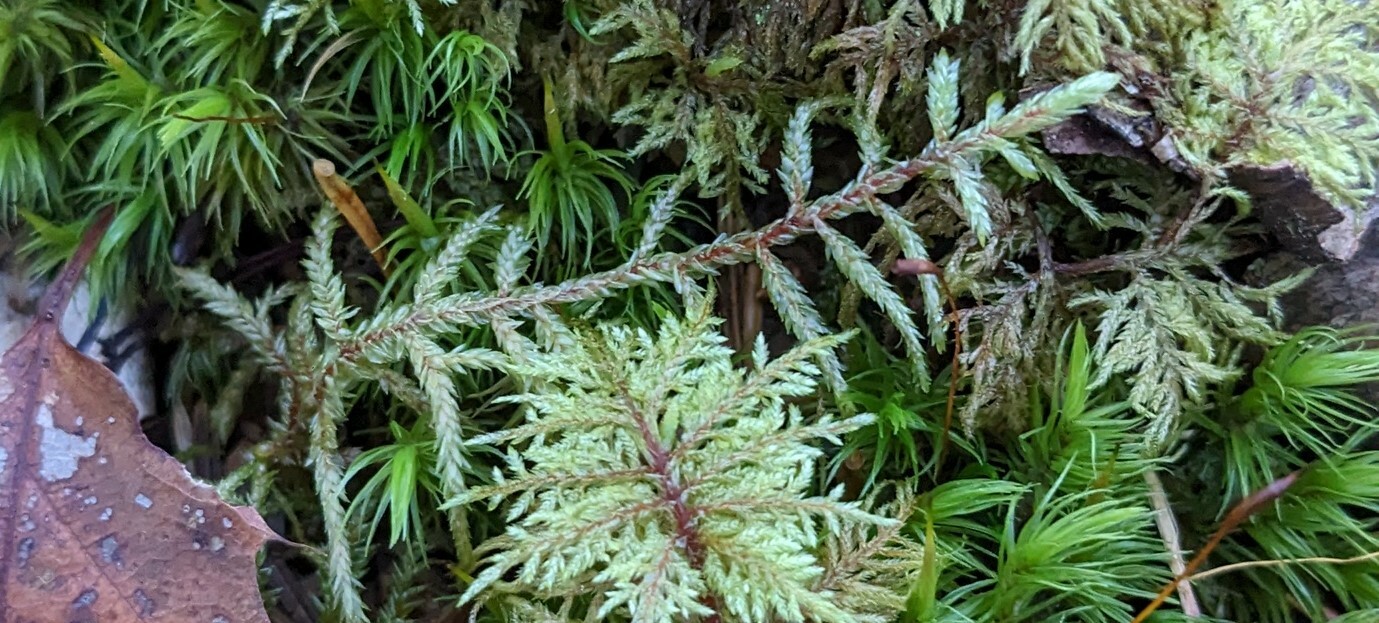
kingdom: Plantae
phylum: Bryophyta
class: Bryopsida
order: Hypnales
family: Hylocomiaceae
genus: Pleurozium
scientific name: Pleurozium schreberi
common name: Red-stemmed feather moss
